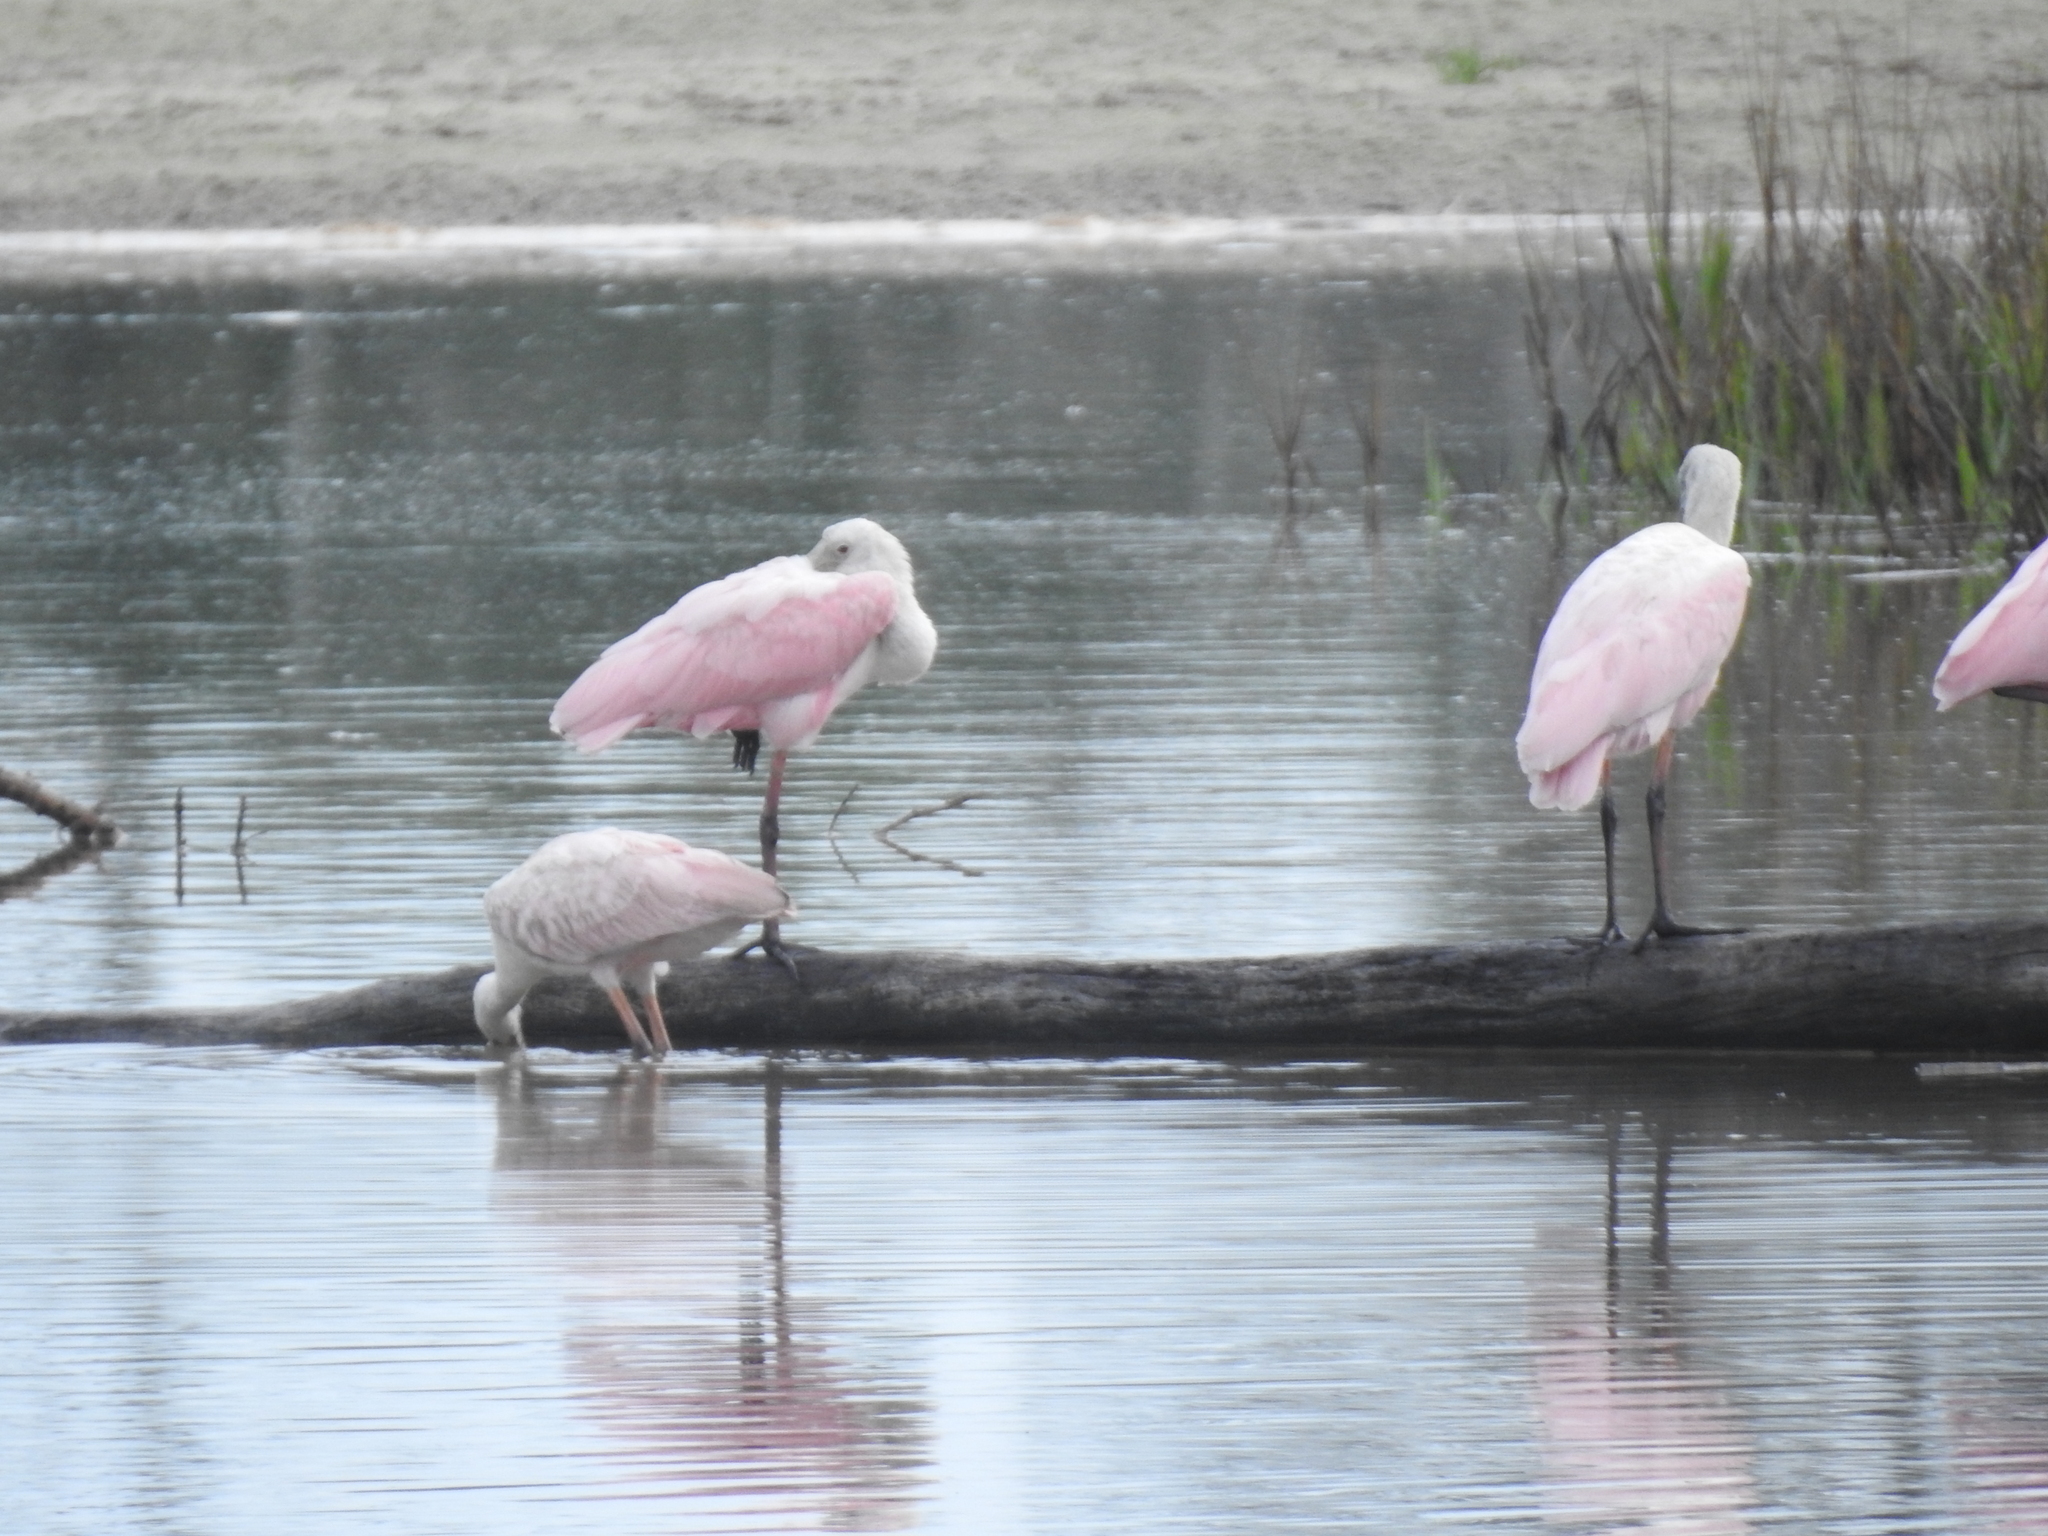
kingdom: Animalia
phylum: Chordata
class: Aves
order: Pelecaniformes
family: Threskiornithidae
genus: Platalea
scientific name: Platalea ajaja
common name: Roseate spoonbill
